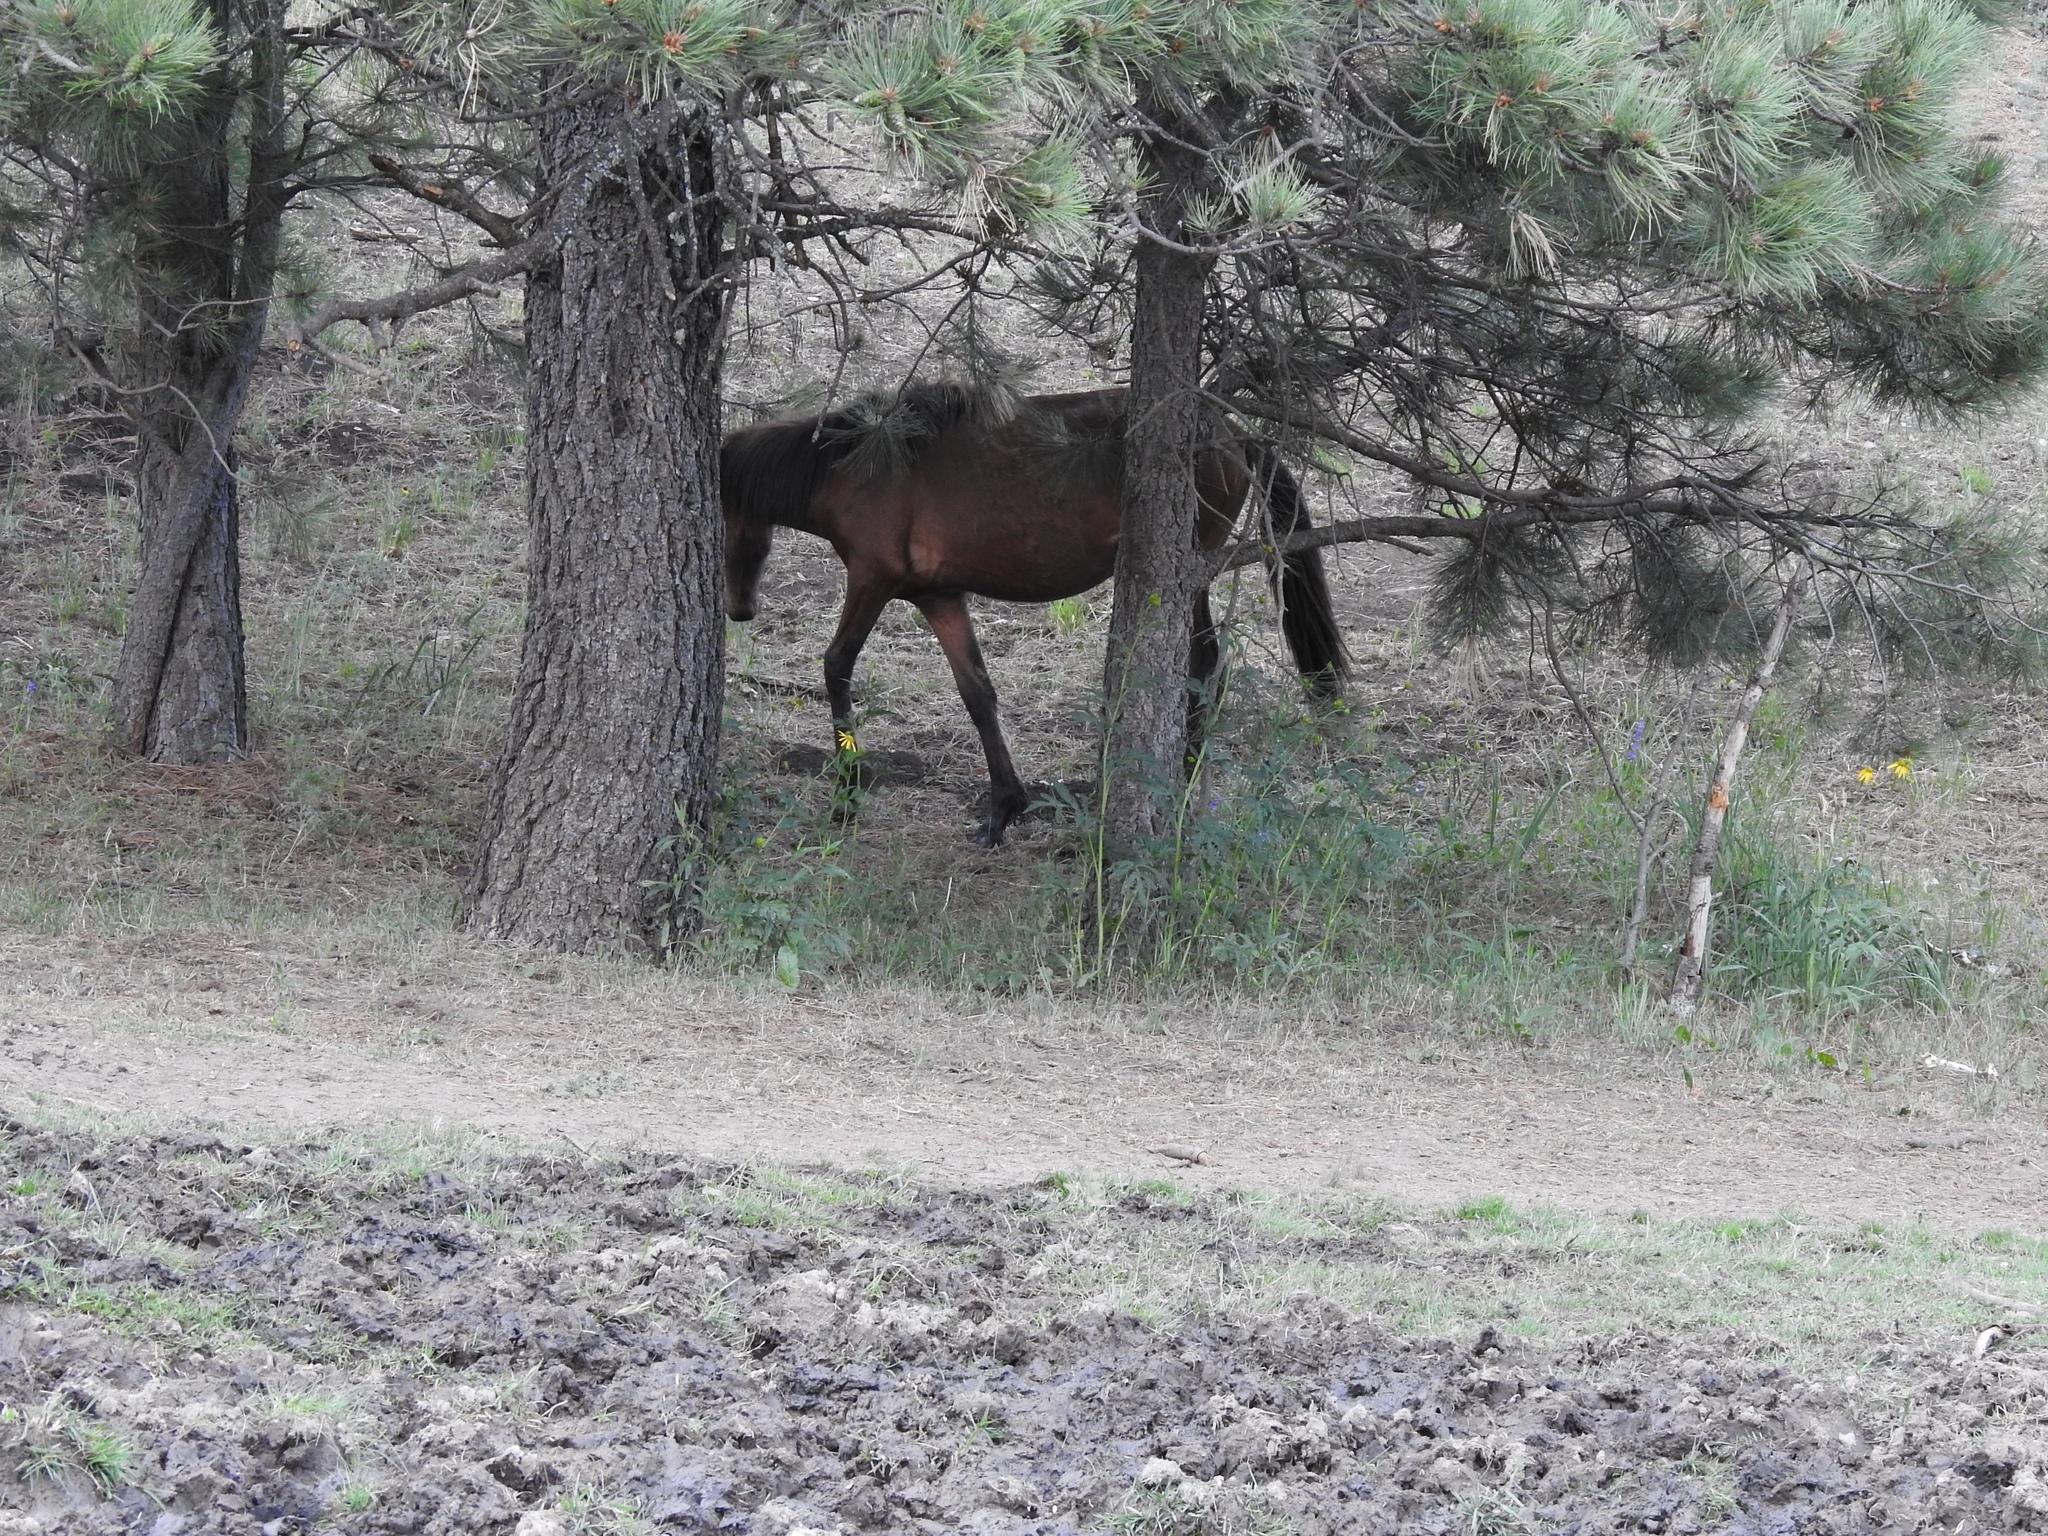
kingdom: Animalia
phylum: Chordata
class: Mammalia
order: Perissodactyla
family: Equidae
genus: Equus
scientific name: Equus caballus
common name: Horse
